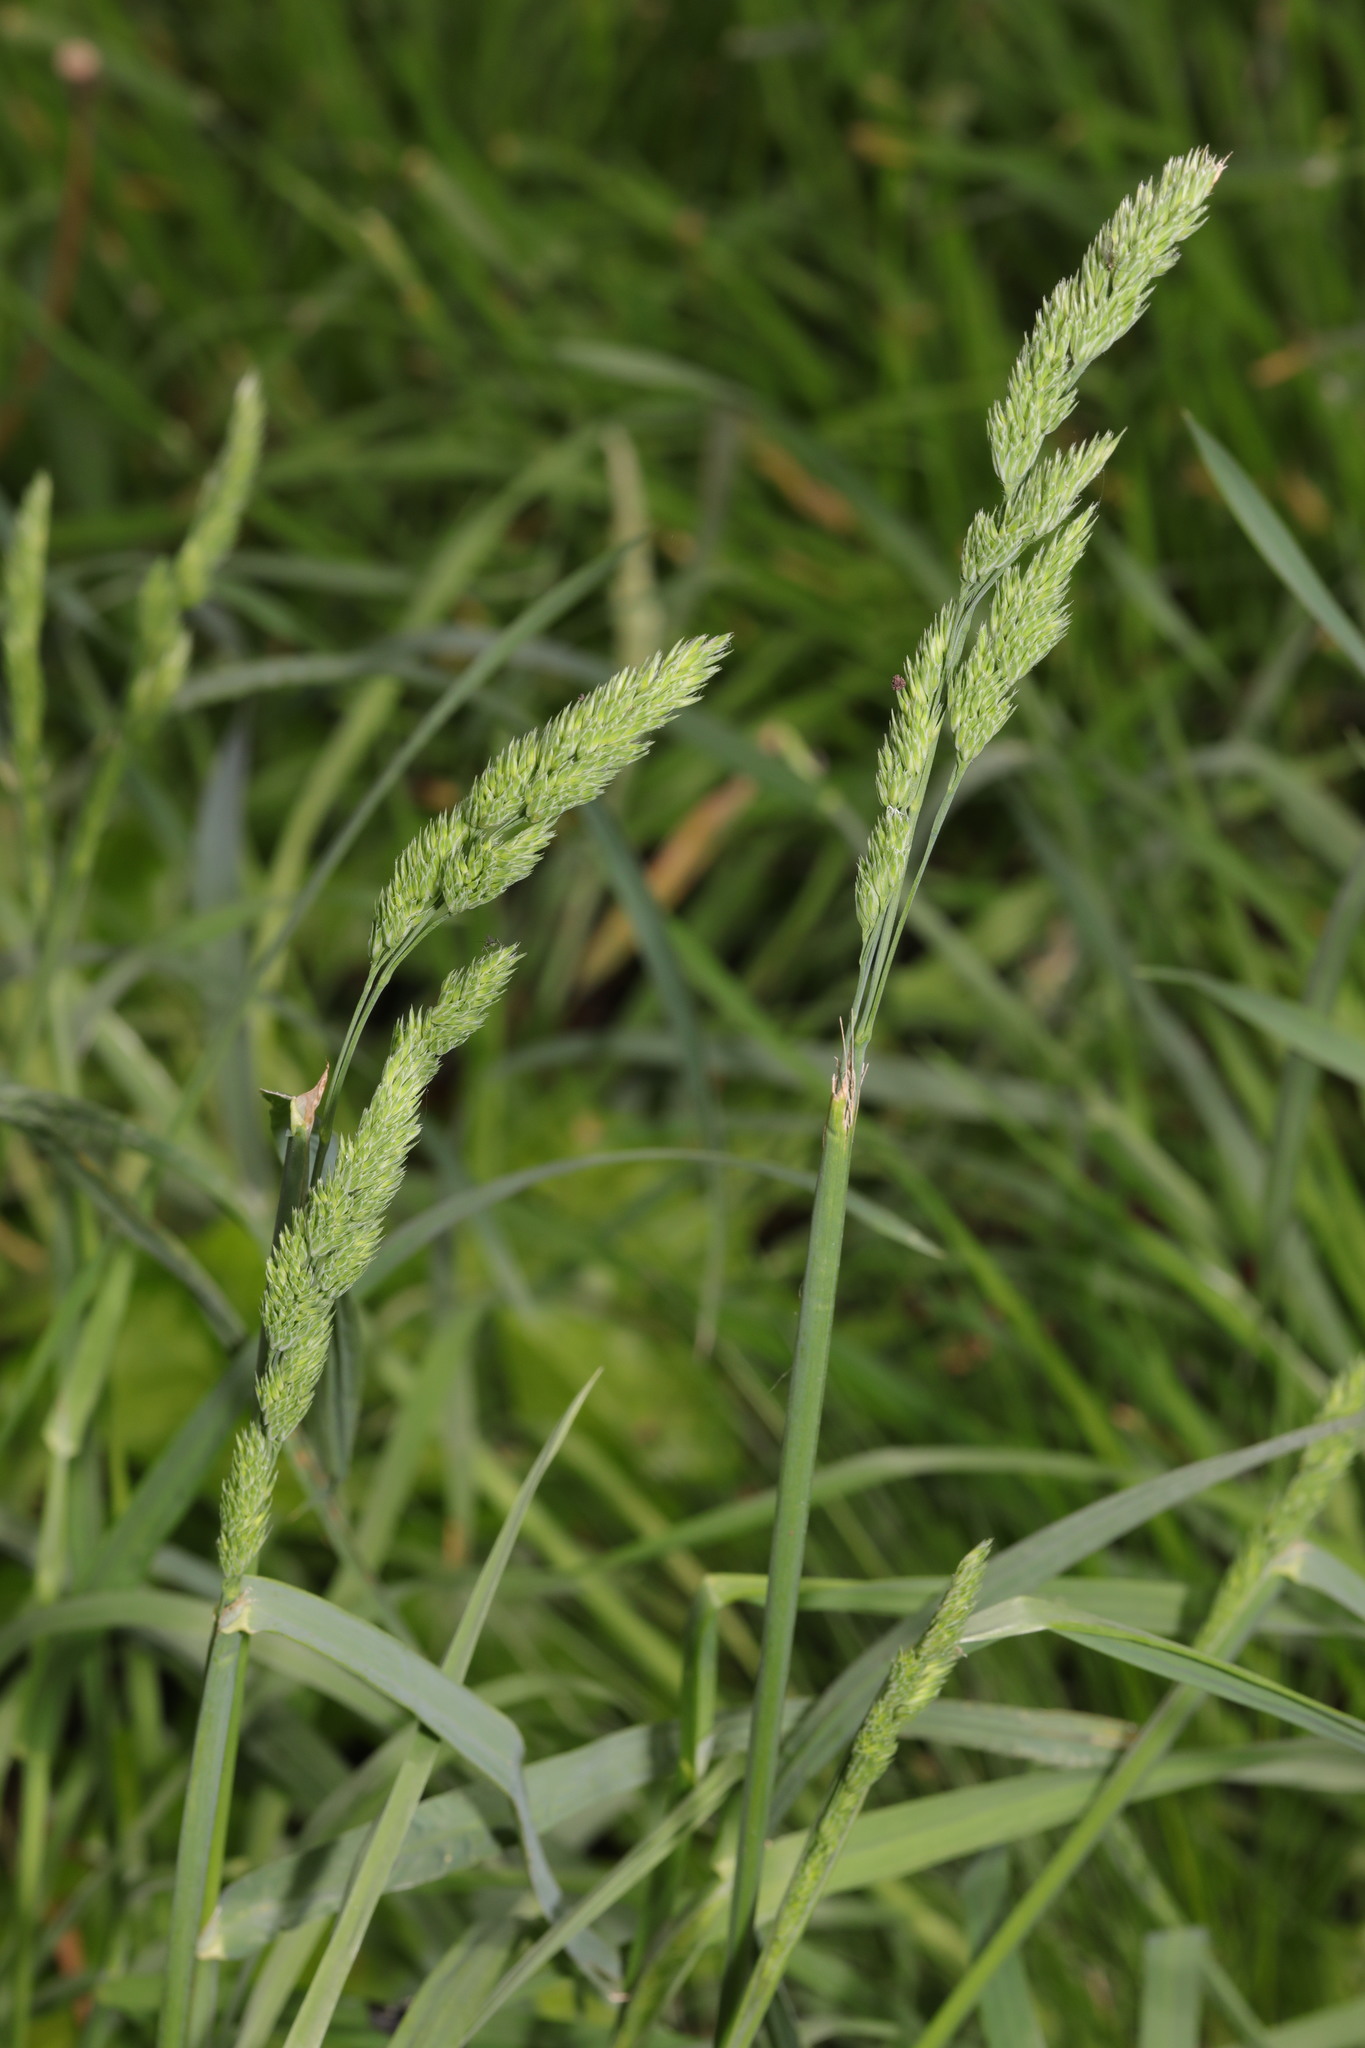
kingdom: Plantae
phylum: Tracheophyta
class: Liliopsida
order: Poales
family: Poaceae
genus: Dactylis
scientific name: Dactylis glomerata
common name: Orchardgrass
